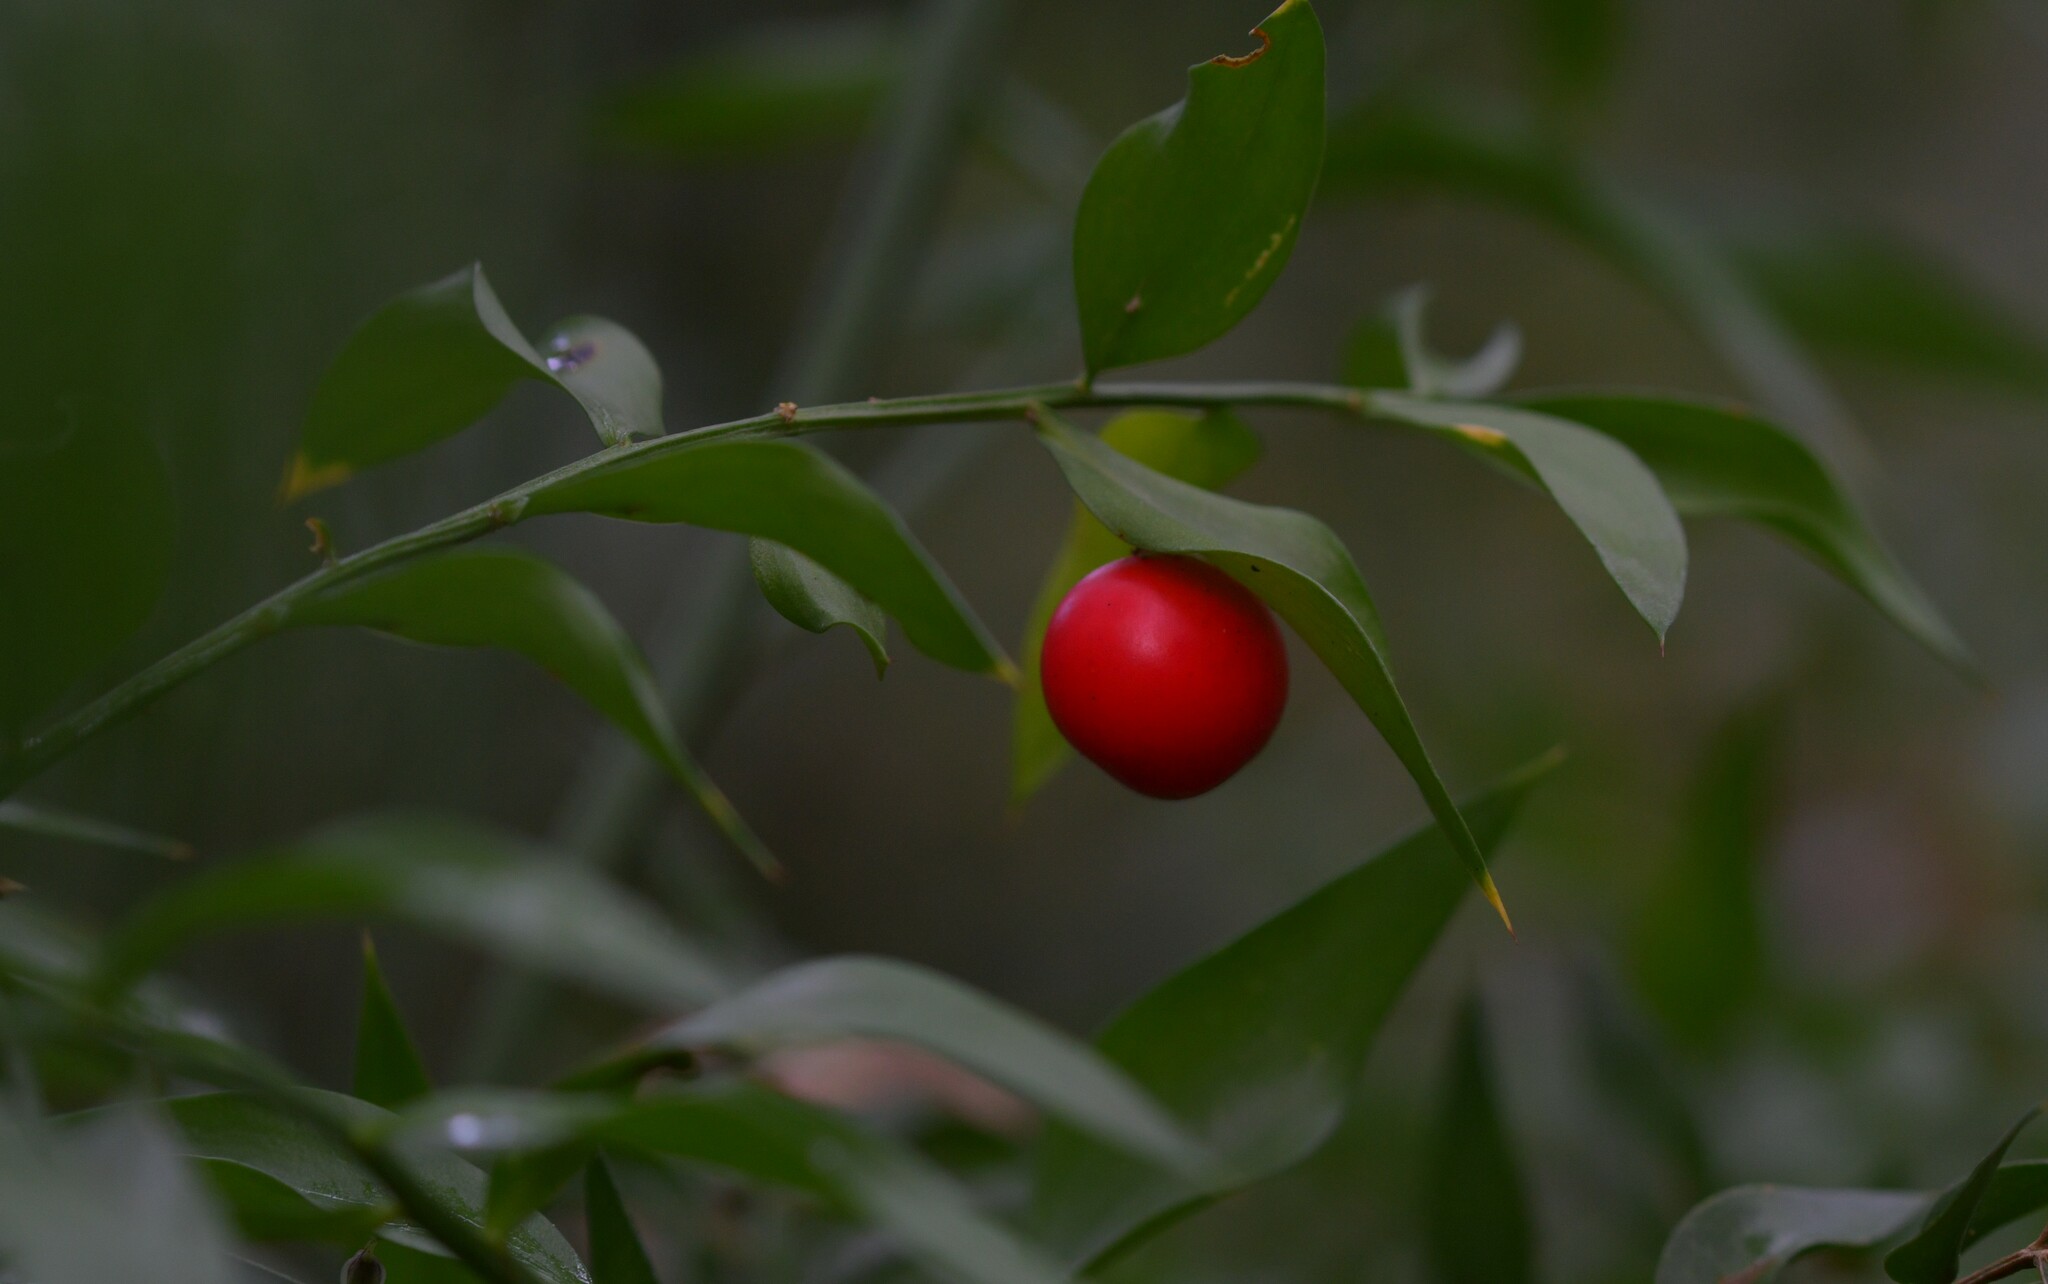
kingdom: Plantae
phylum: Tracheophyta
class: Liliopsida
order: Asparagales
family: Asparagaceae
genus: Ruscus
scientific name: Ruscus aculeatus
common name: Butcher's-broom
